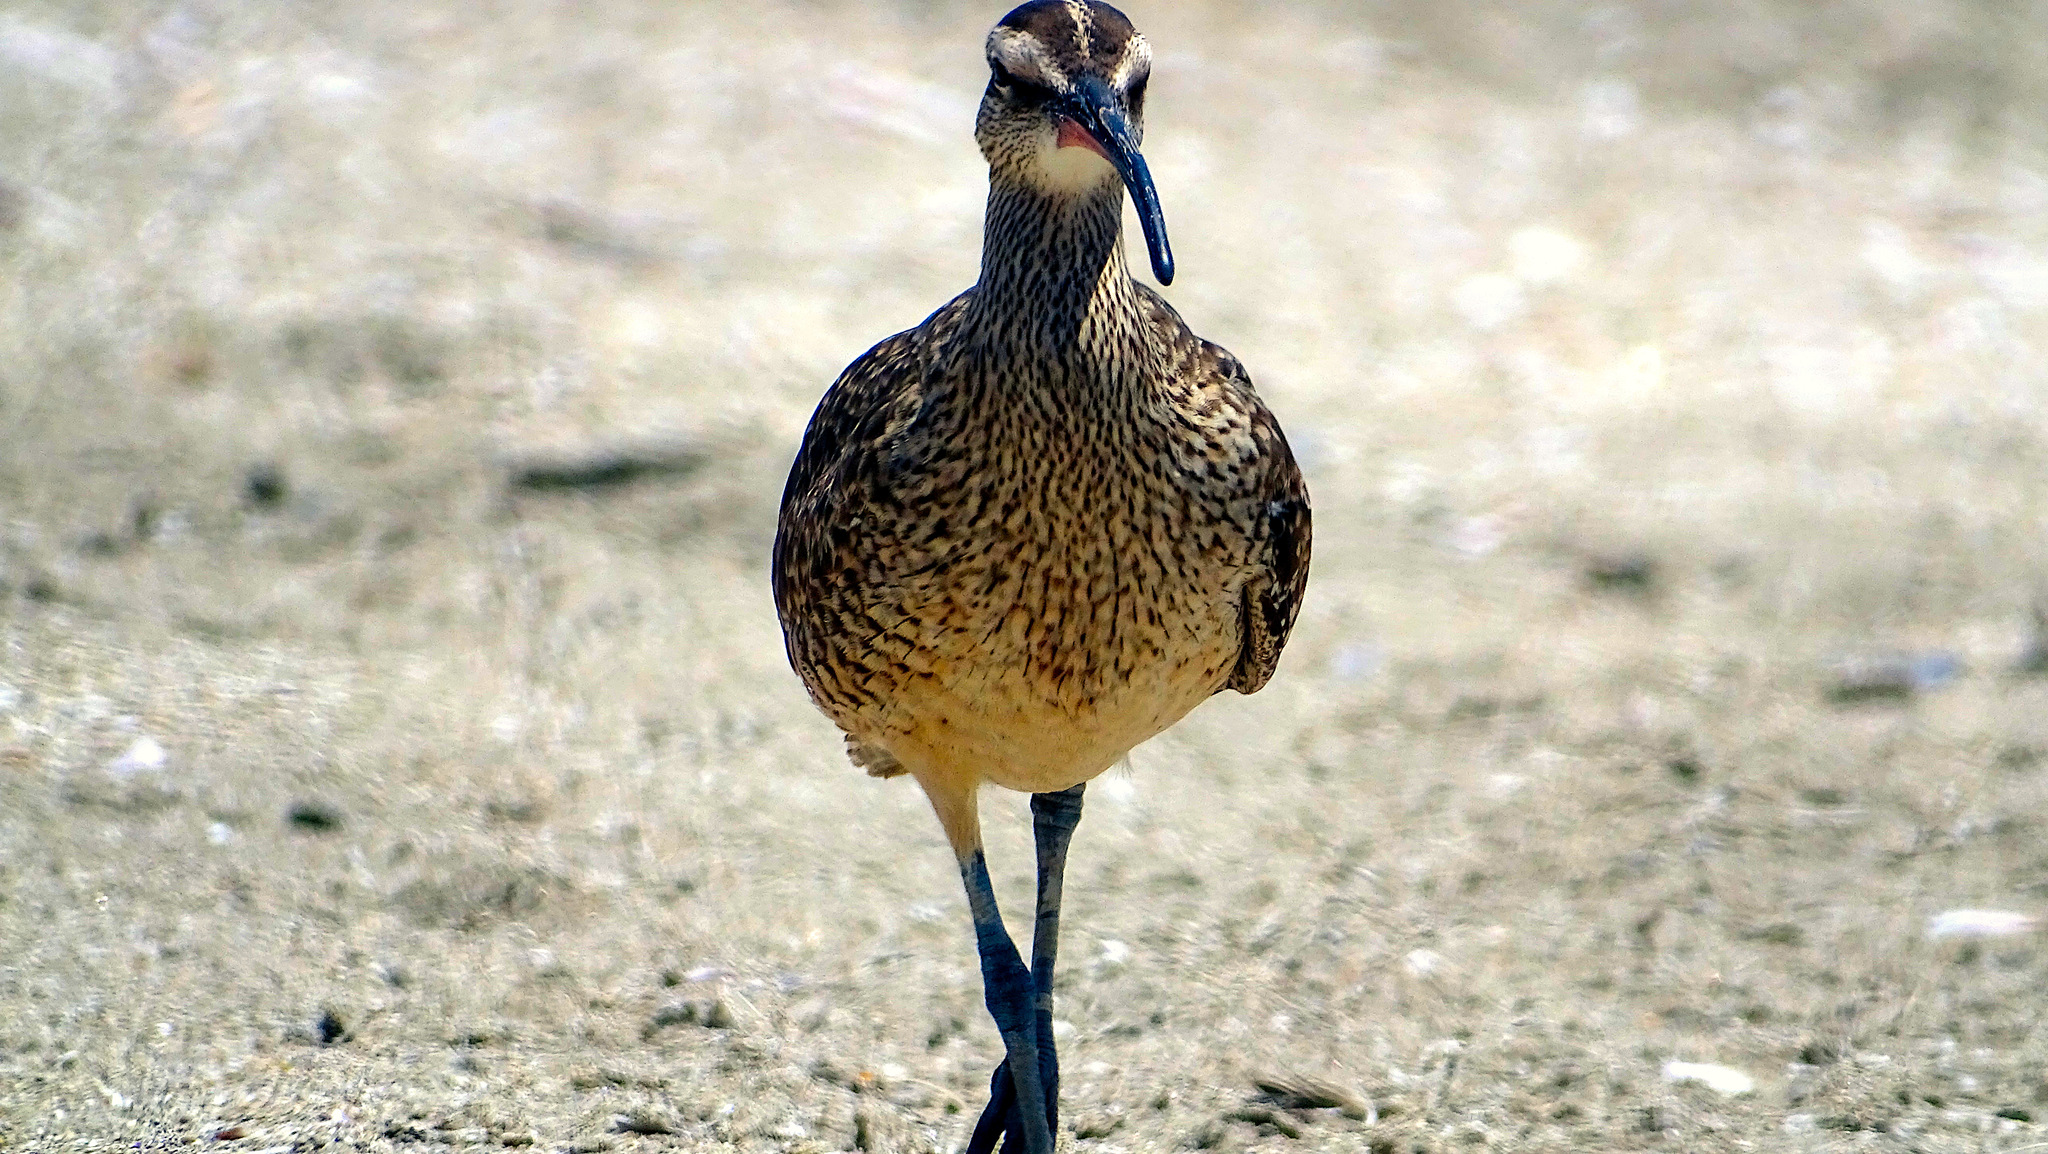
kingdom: Animalia
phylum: Chordata
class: Aves
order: Charadriiformes
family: Scolopacidae
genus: Numenius
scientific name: Numenius phaeopus
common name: Whimbrel
